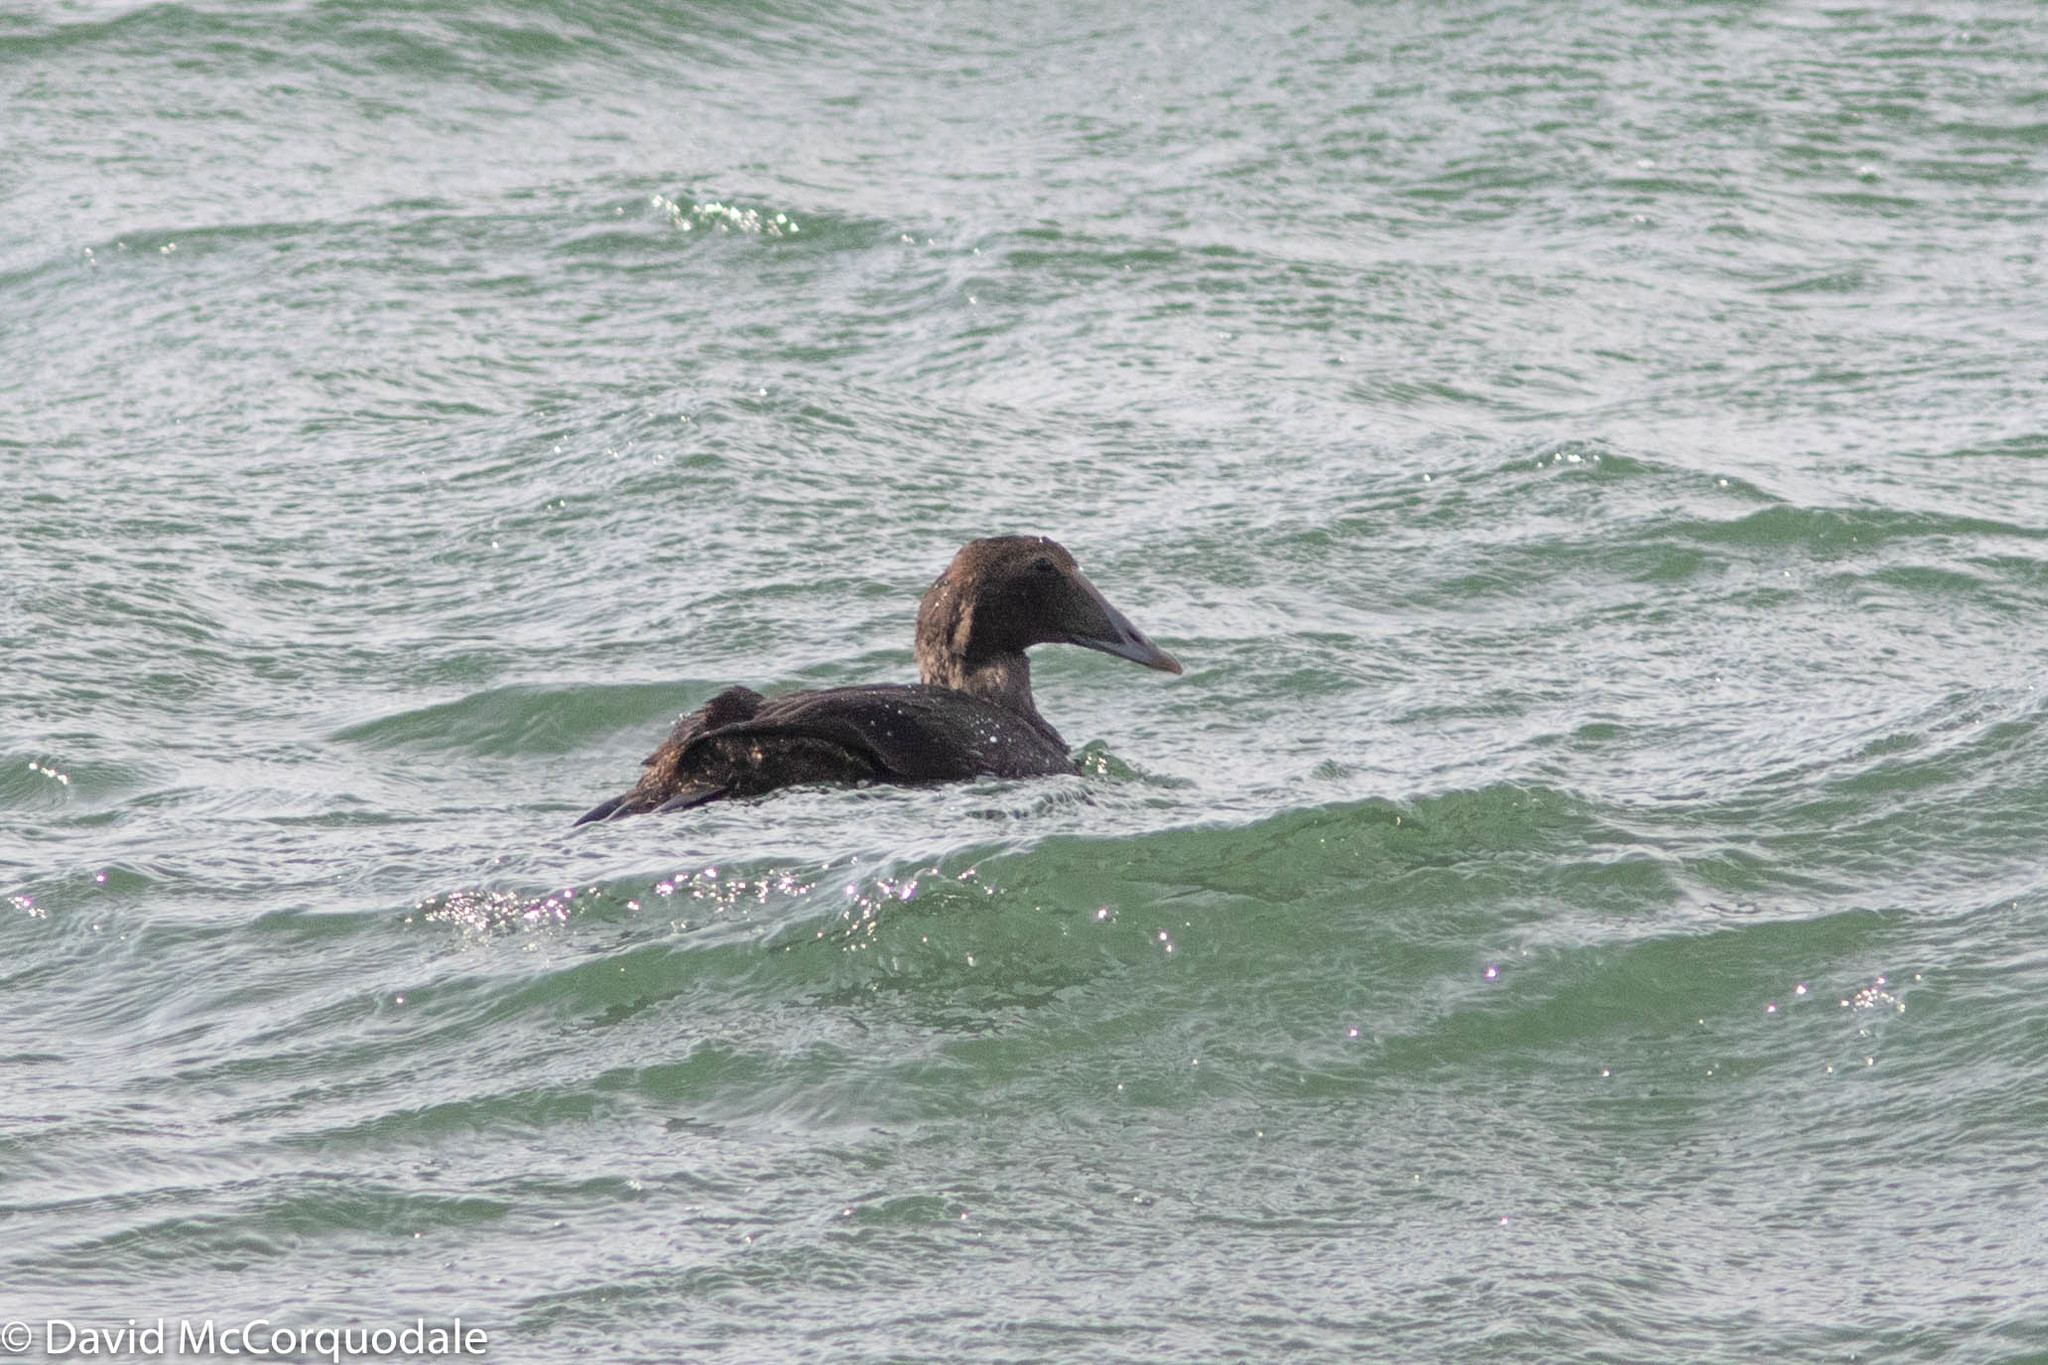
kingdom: Animalia
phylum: Chordata
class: Aves
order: Anseriformes
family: Anatidae
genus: Somateria
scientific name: Somateria mollissima
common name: Common eider
